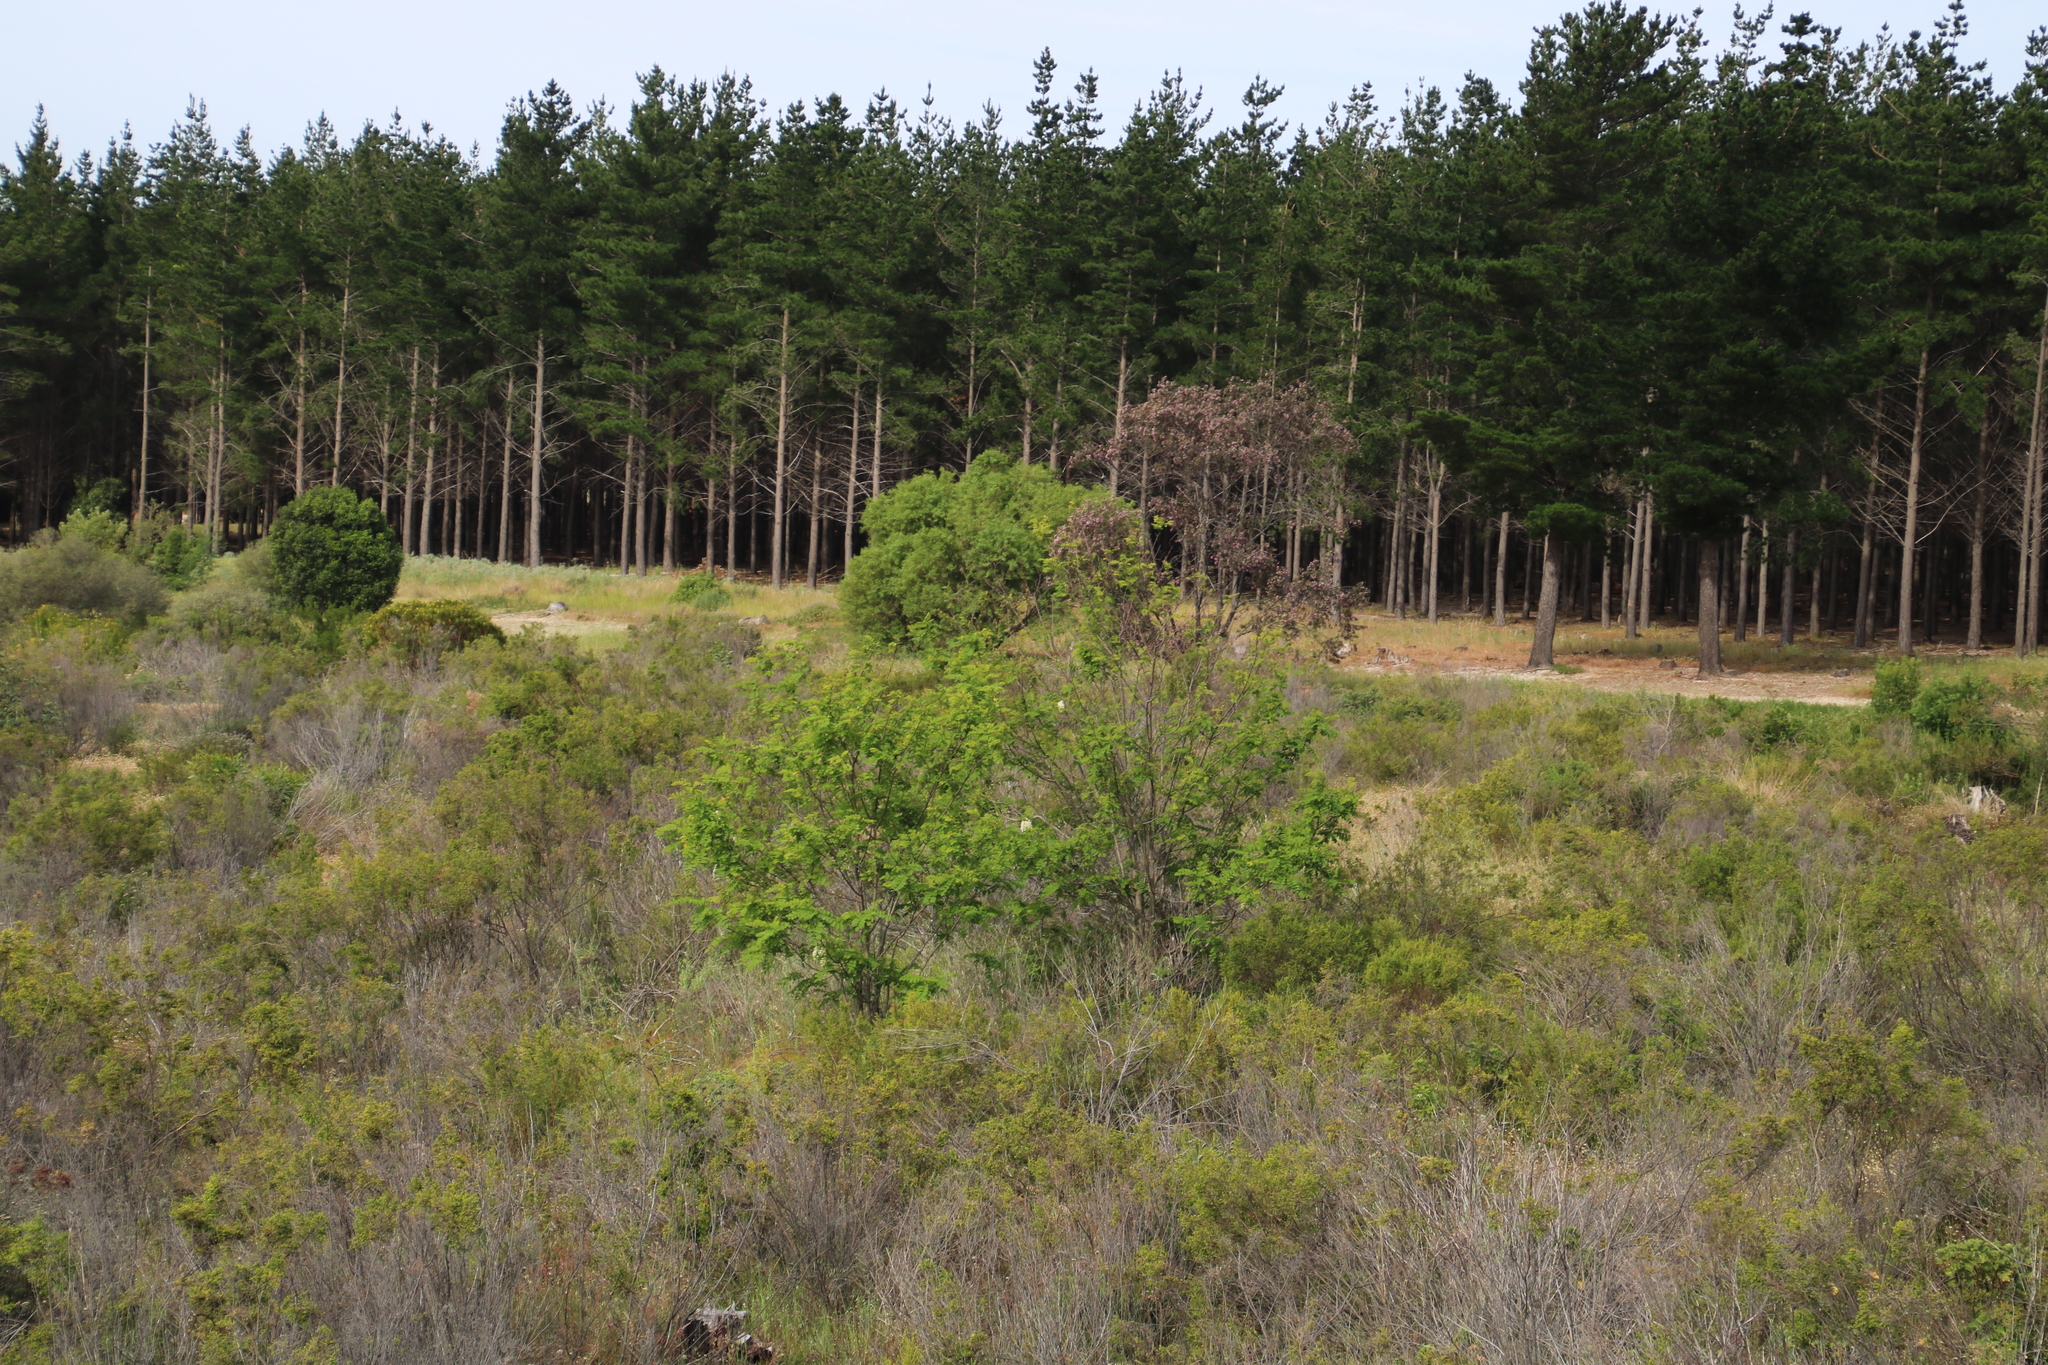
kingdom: Plantae
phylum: Tracheophyta
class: Magnoliopsida
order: Fabales
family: Fabaceae
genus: Robinia
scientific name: Robinia pseudoacacia
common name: Black locust
